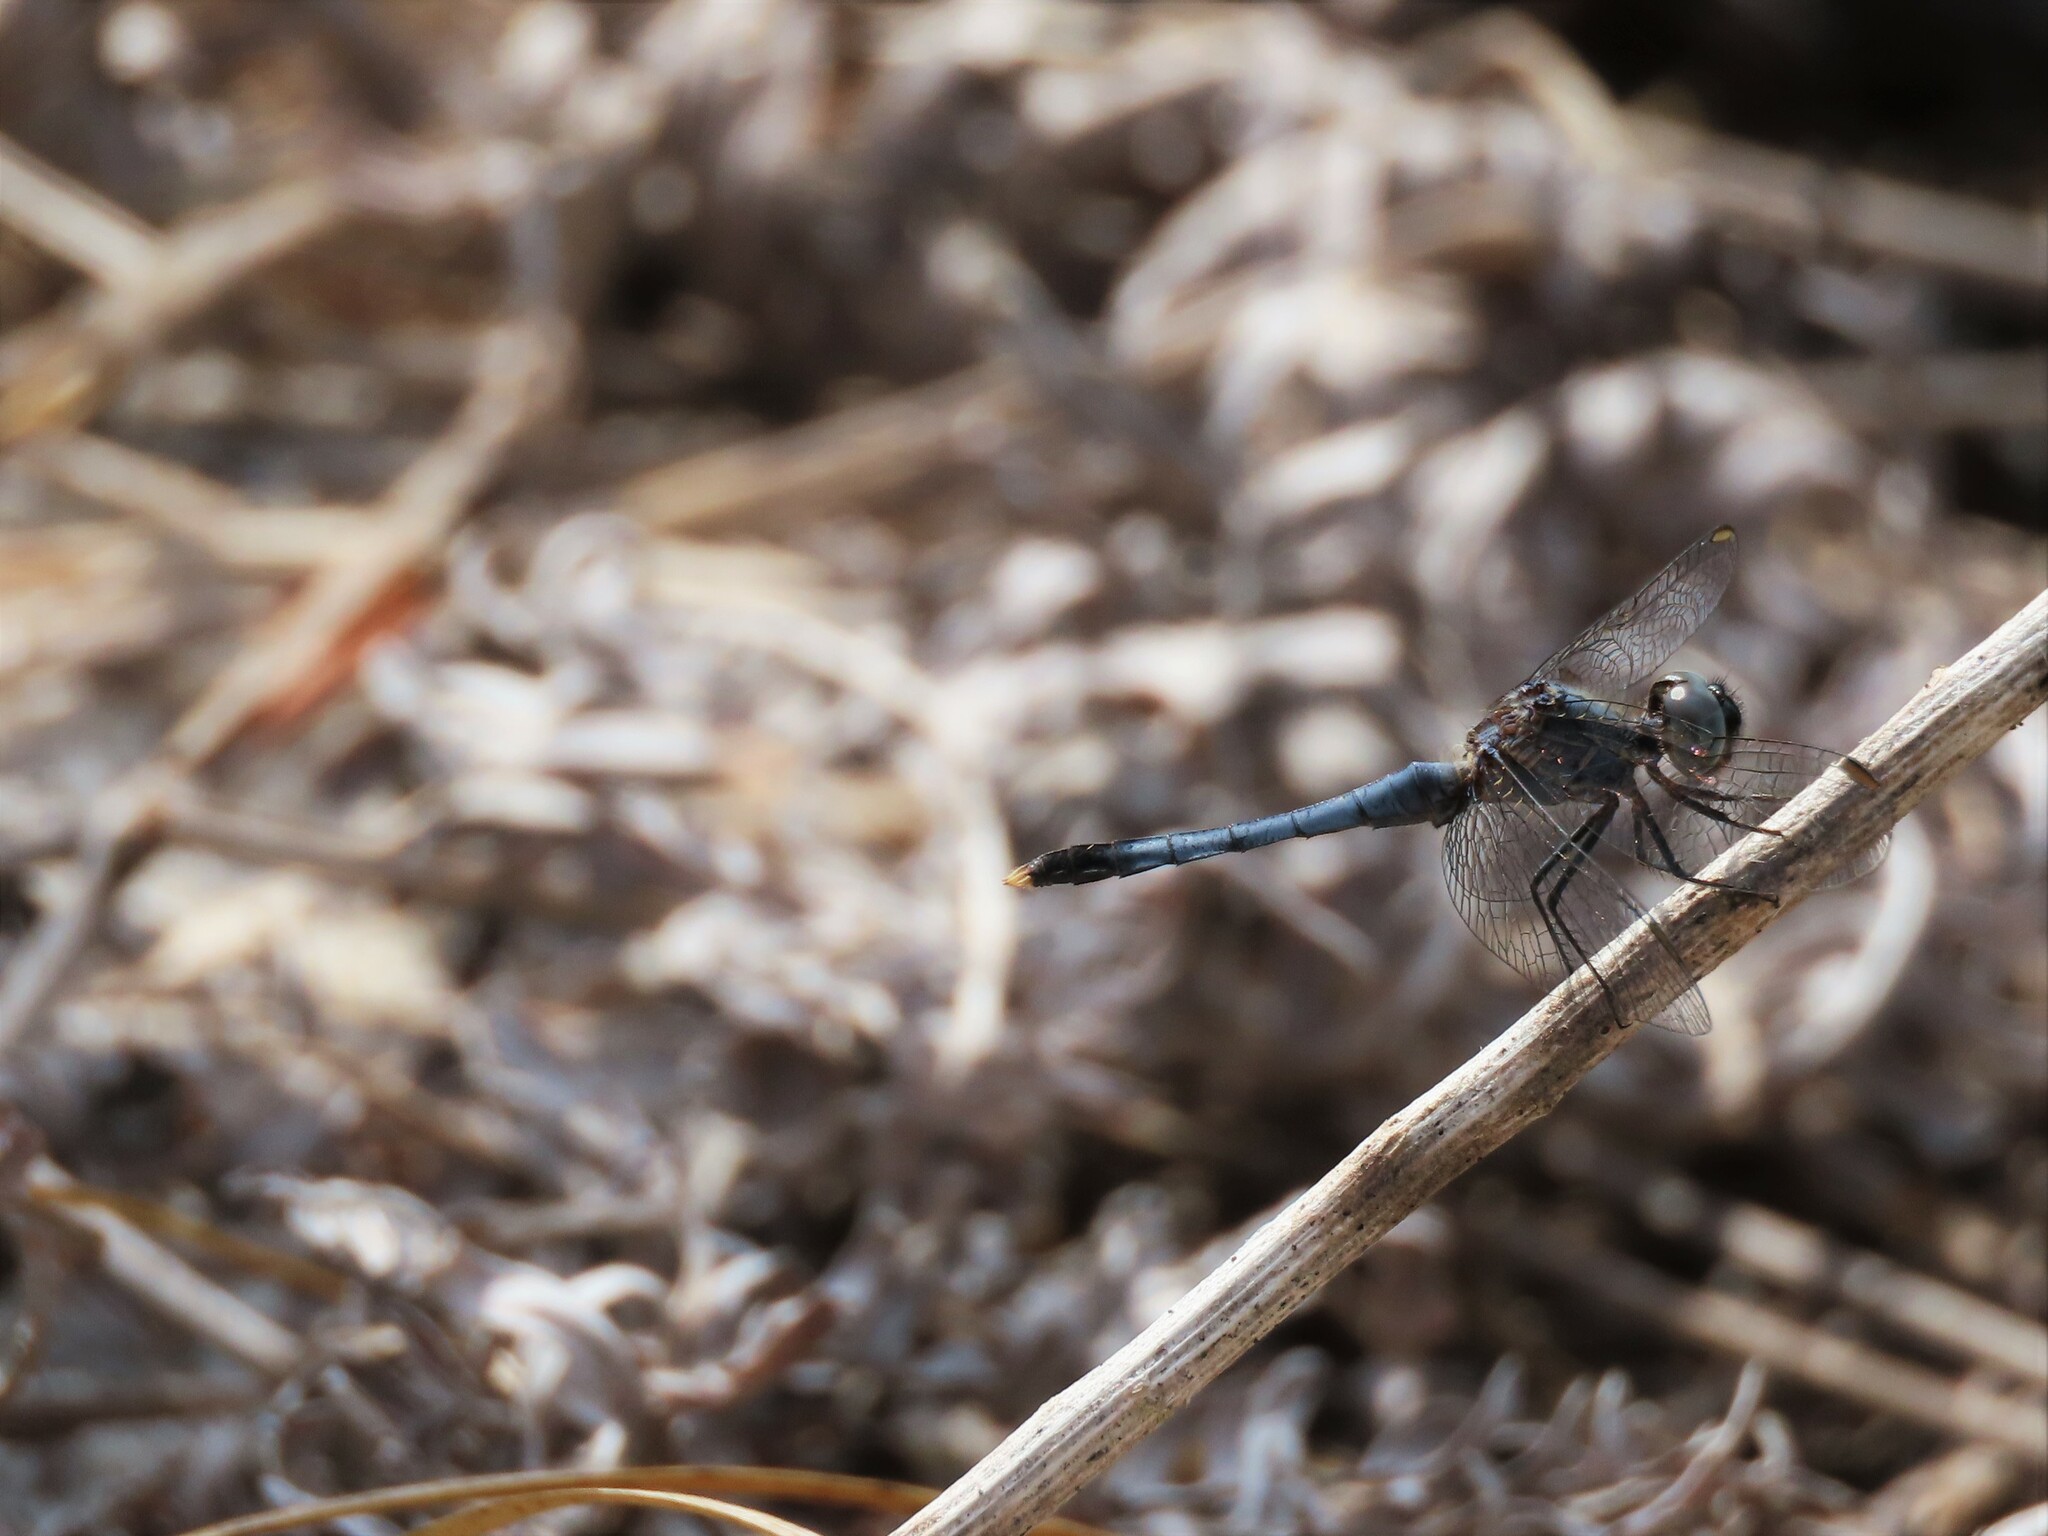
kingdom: Animalia
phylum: Arthropoda
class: Insecta
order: Odonata
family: Libellulidae
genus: Erythrodiplax
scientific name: Erythrodiplax minuscula
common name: Little blue dragonlet
